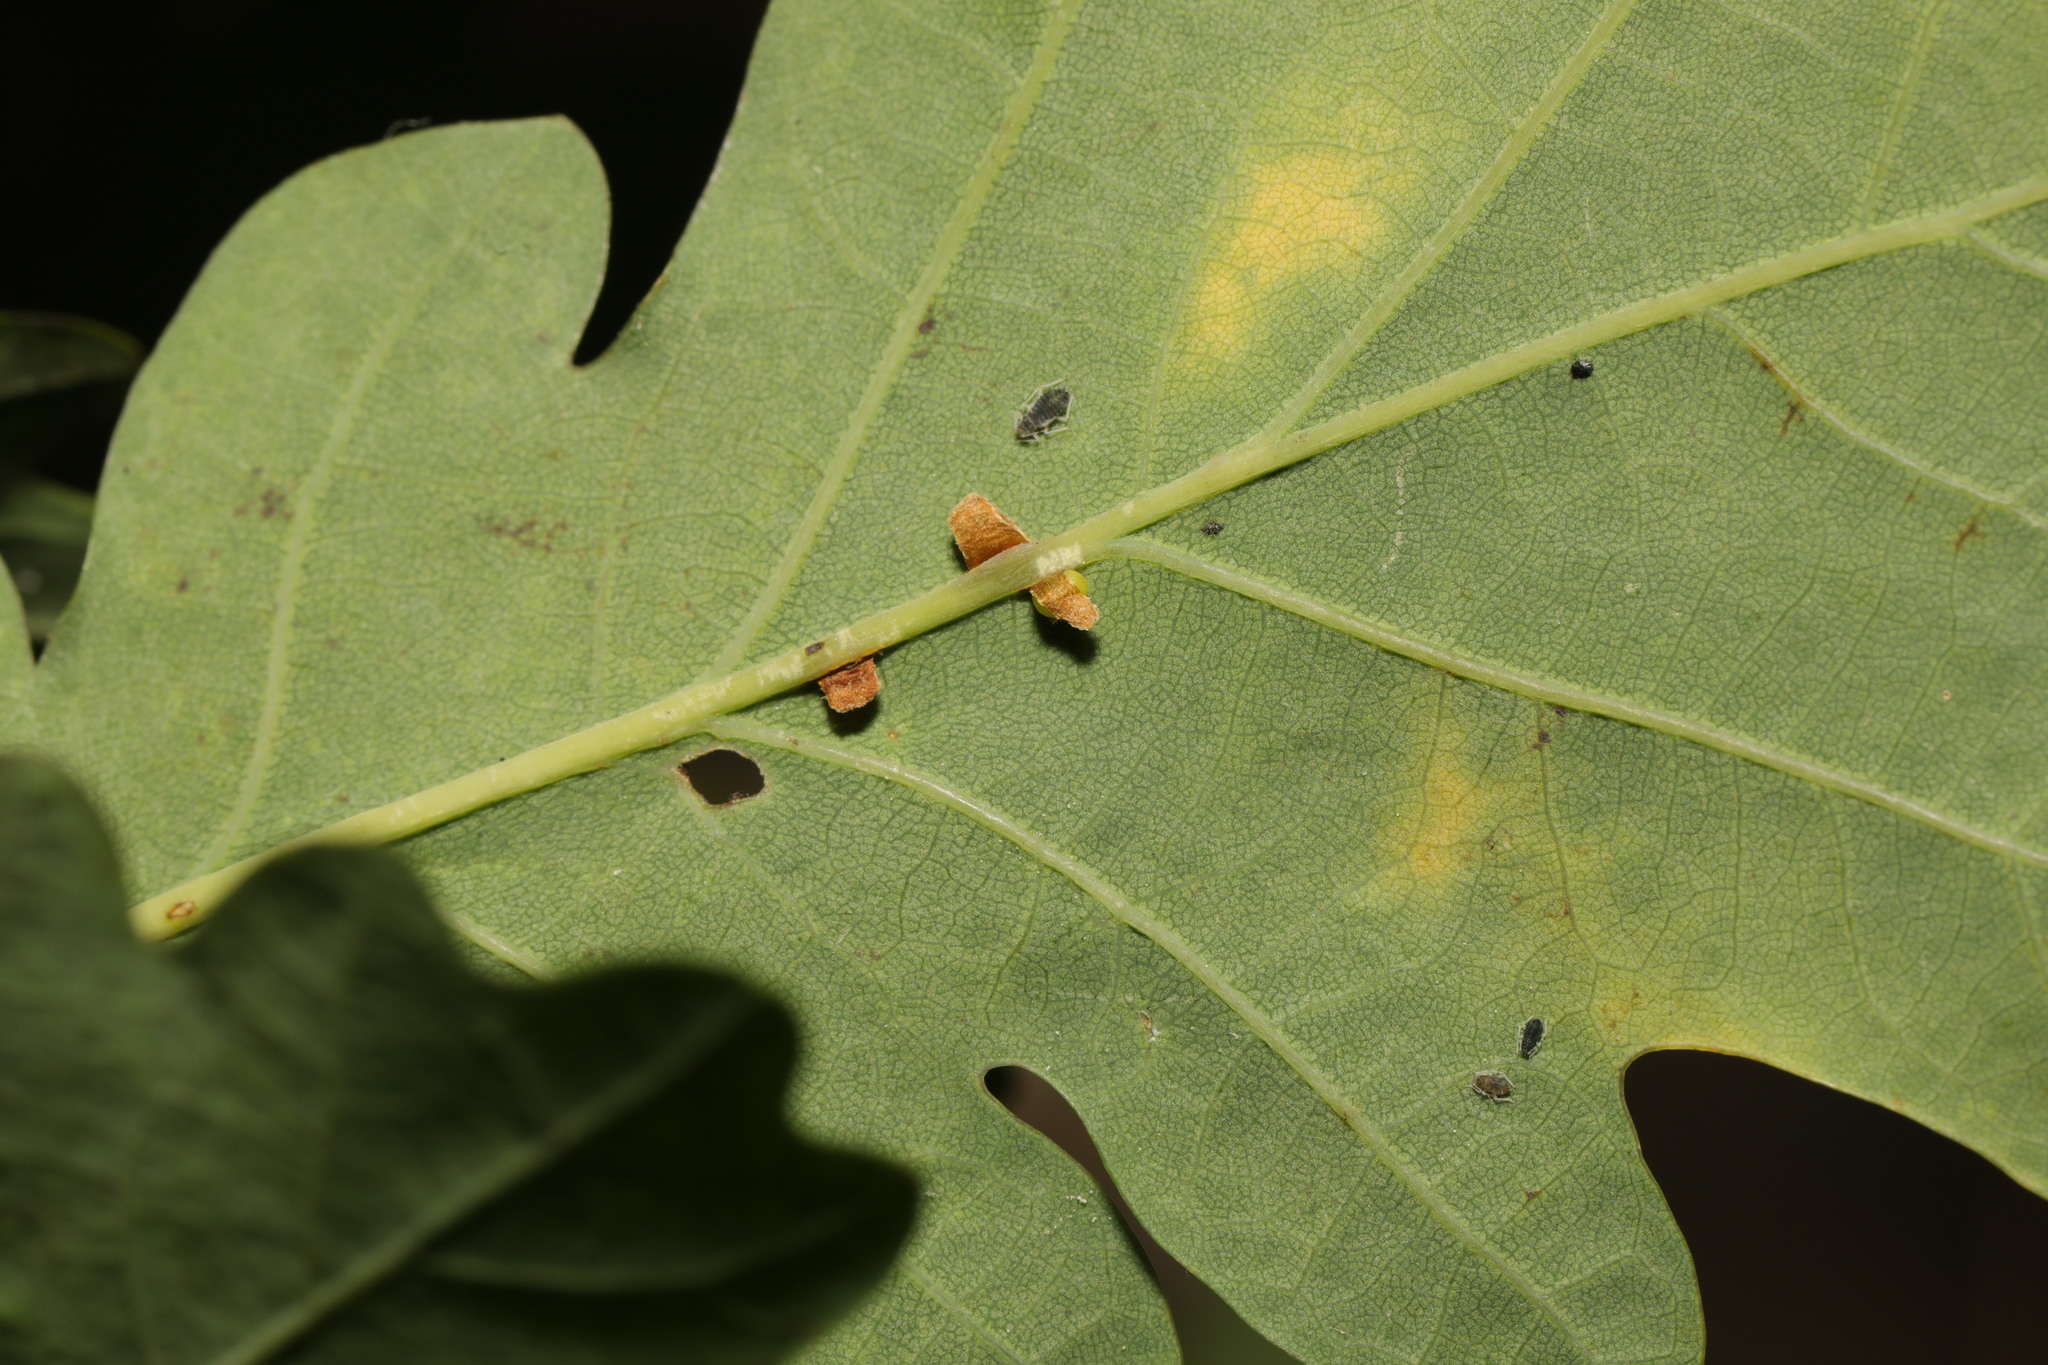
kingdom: Animalia
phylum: Arthropoda
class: Insecta
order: Hymenoptera
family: Cynipidae
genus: Neuroterus
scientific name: Neuroterus anthracinus
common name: Oyster gall
